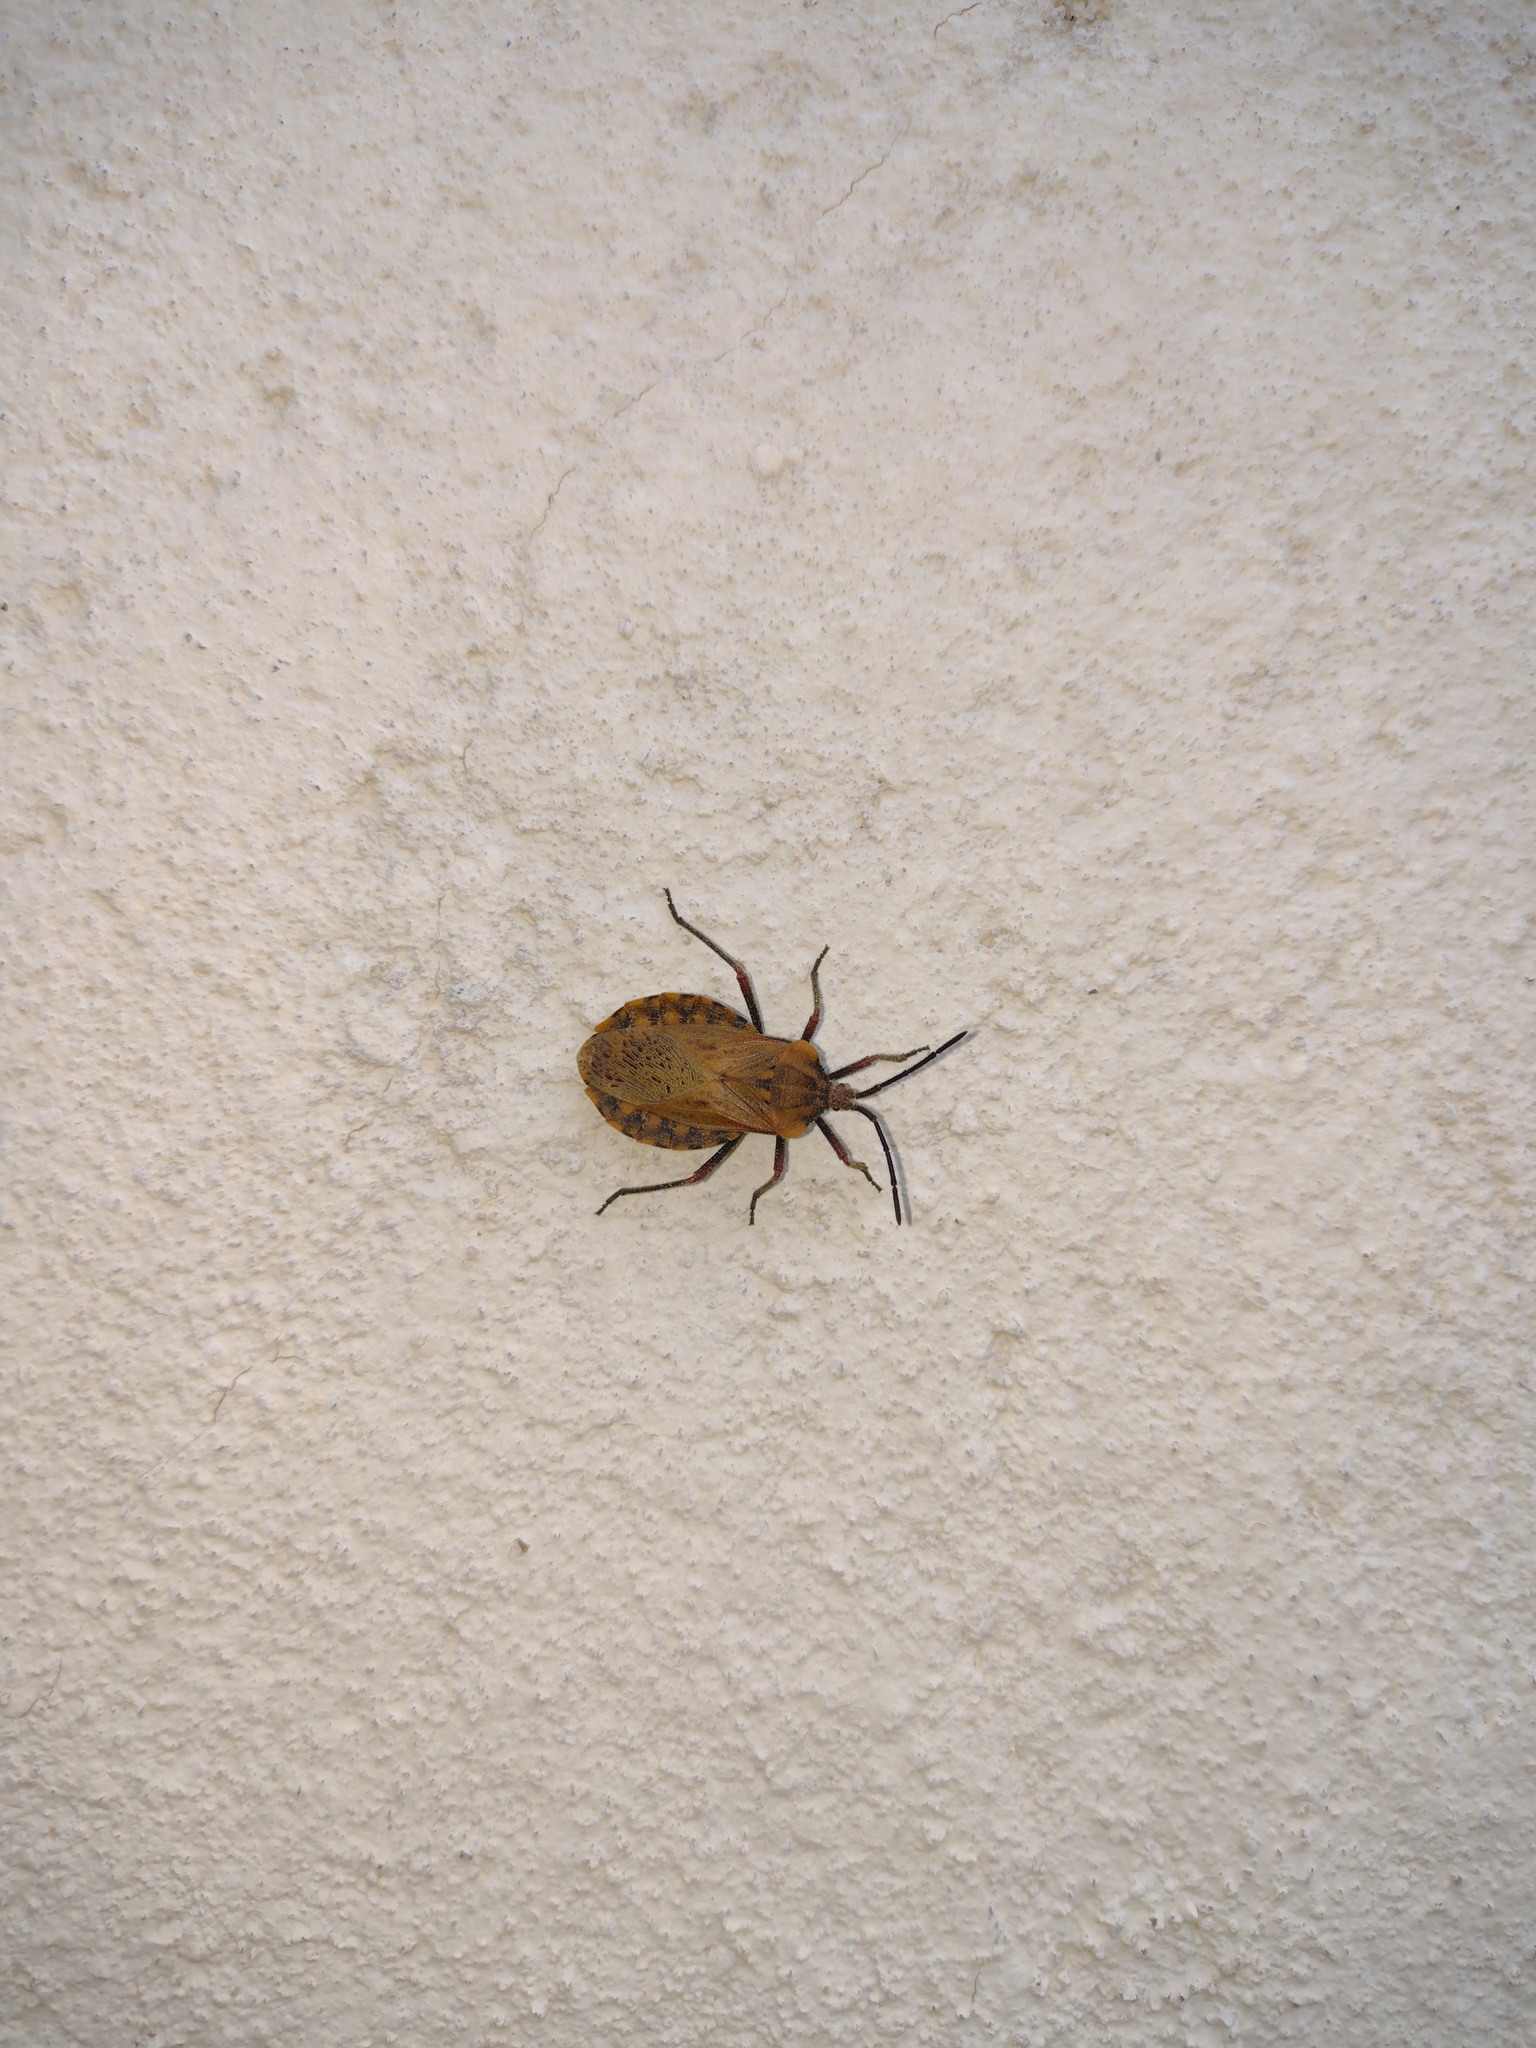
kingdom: Animalia
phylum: Arthropoda
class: Insecta
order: Hemiptera
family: Coreidae
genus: Spartocera
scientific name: Spartocera fusca
